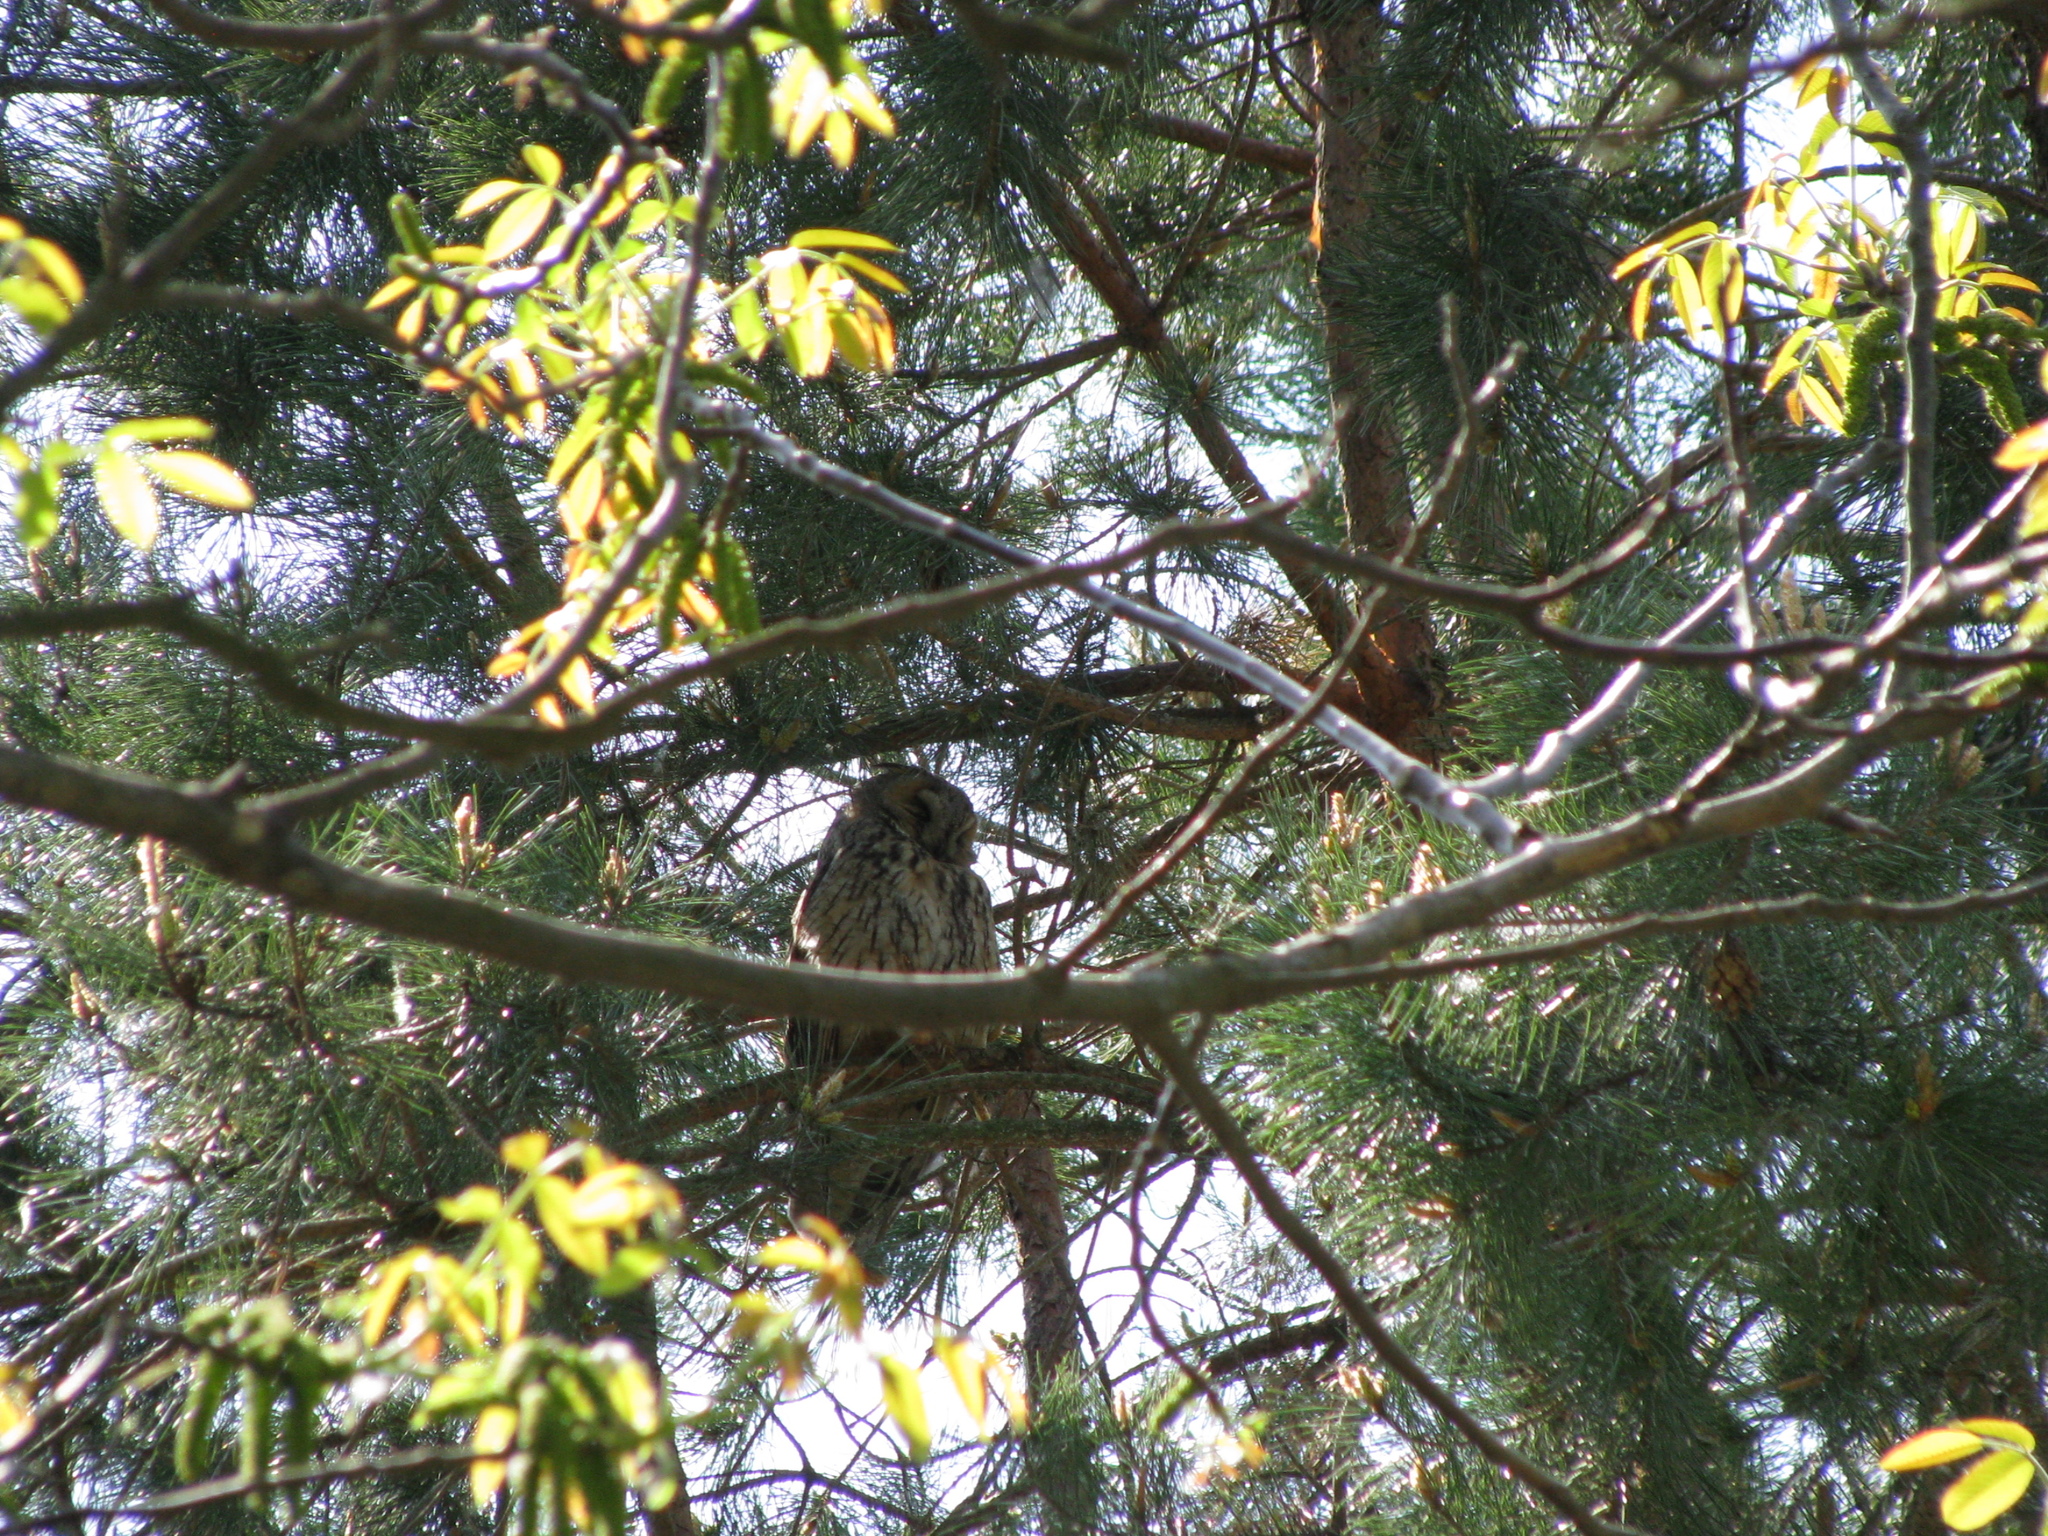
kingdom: Animalia
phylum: Chordata
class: Aves
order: Strigiformes
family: Strigidae
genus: Asio
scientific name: Asio otus
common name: Long-eared owl
